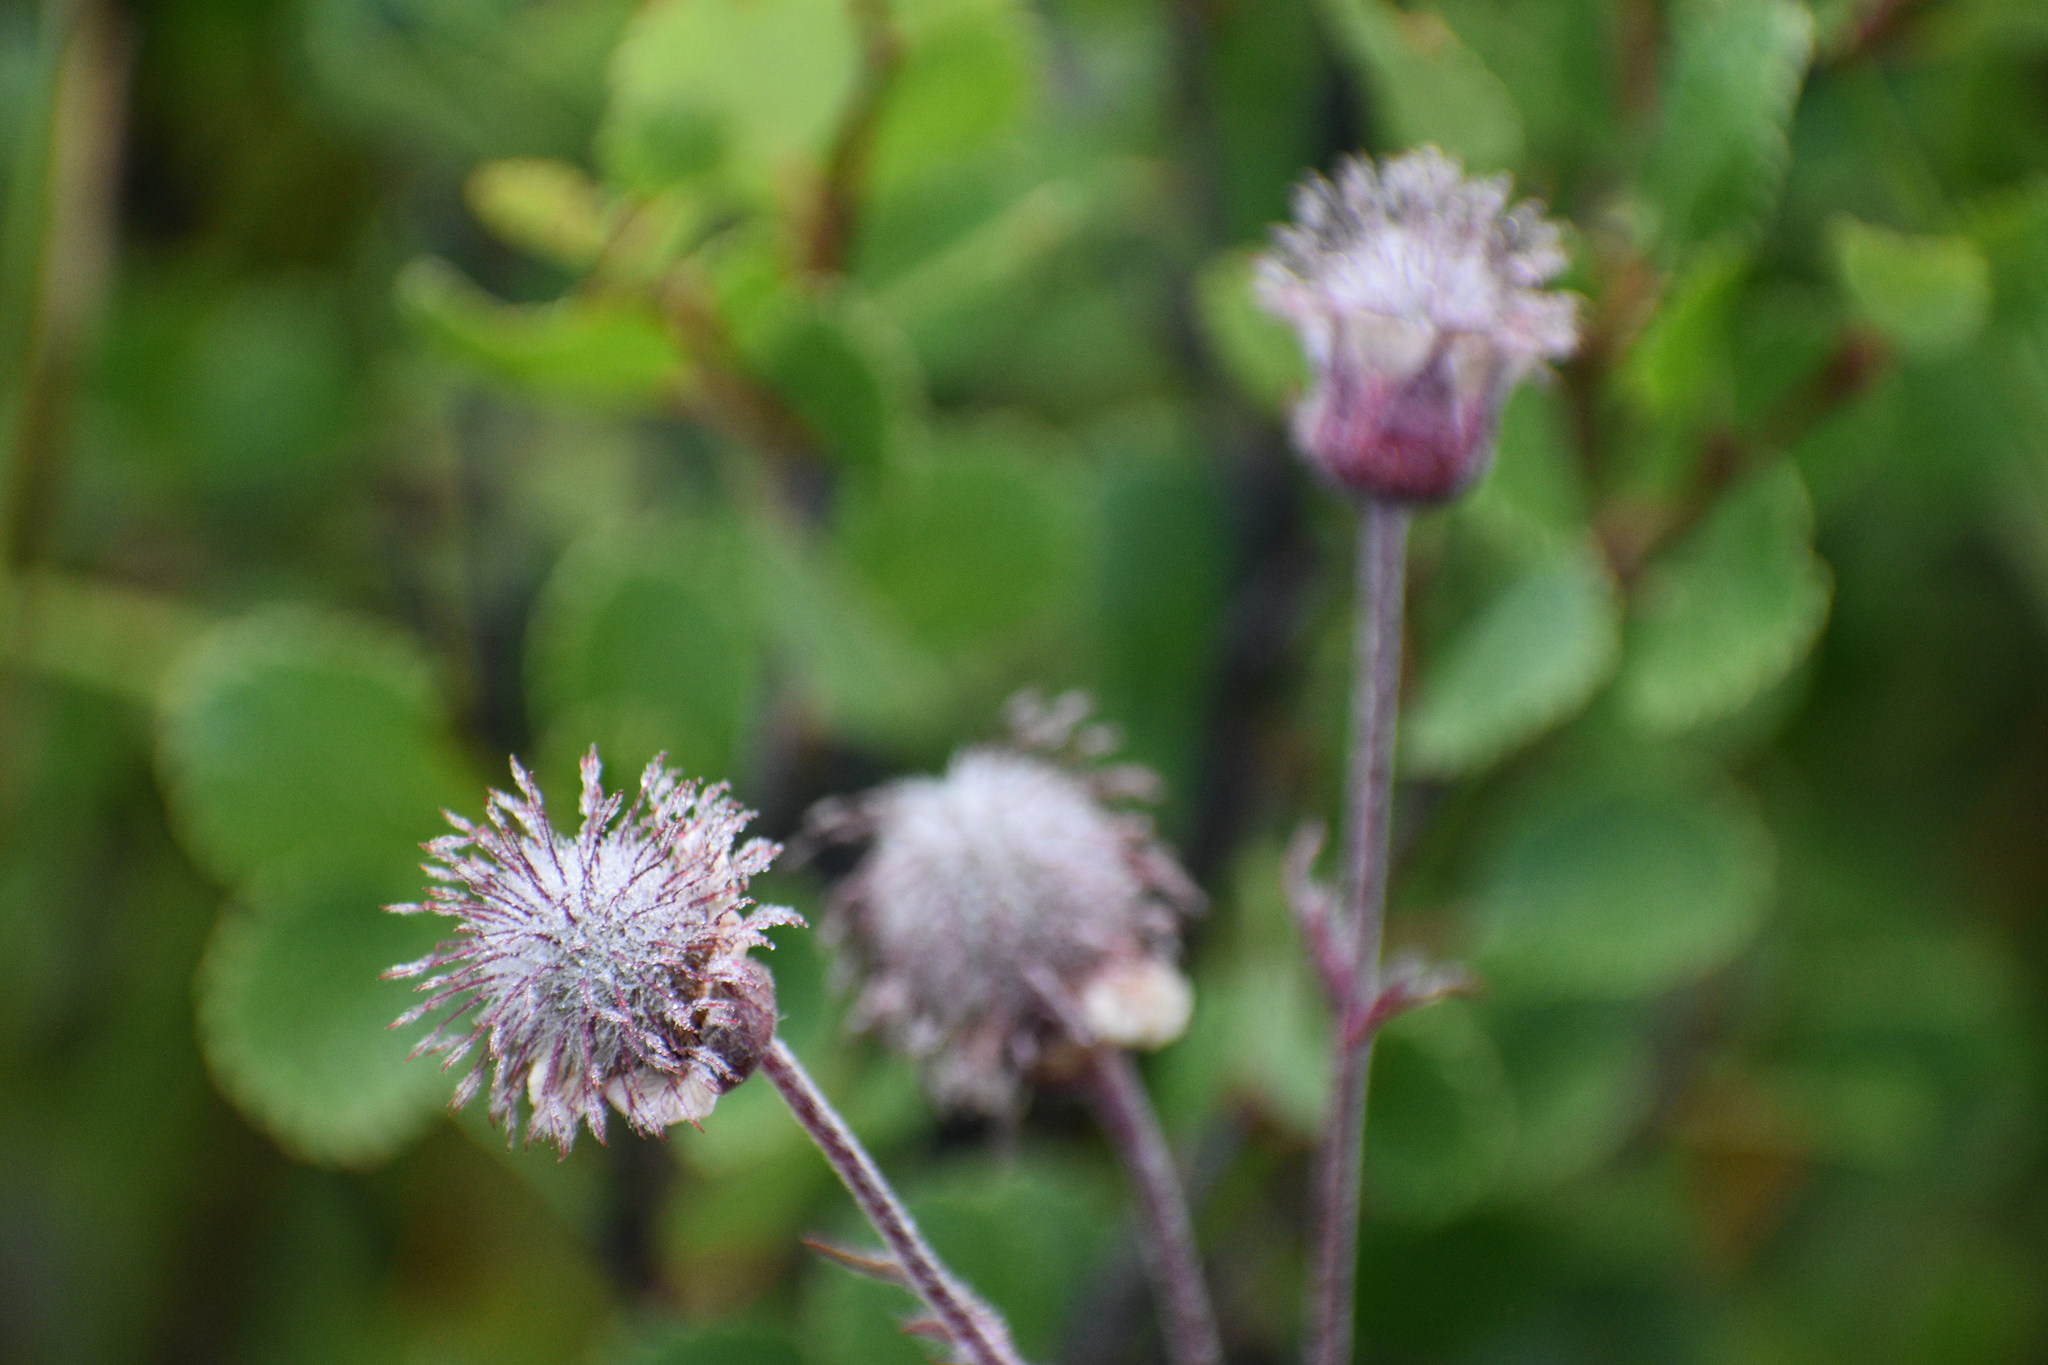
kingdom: Plantae
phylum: Tracheophyta
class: Magnoliopsida
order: Rosales
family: Rosaceae
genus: Geum
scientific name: Geum rivale
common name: Water avens
